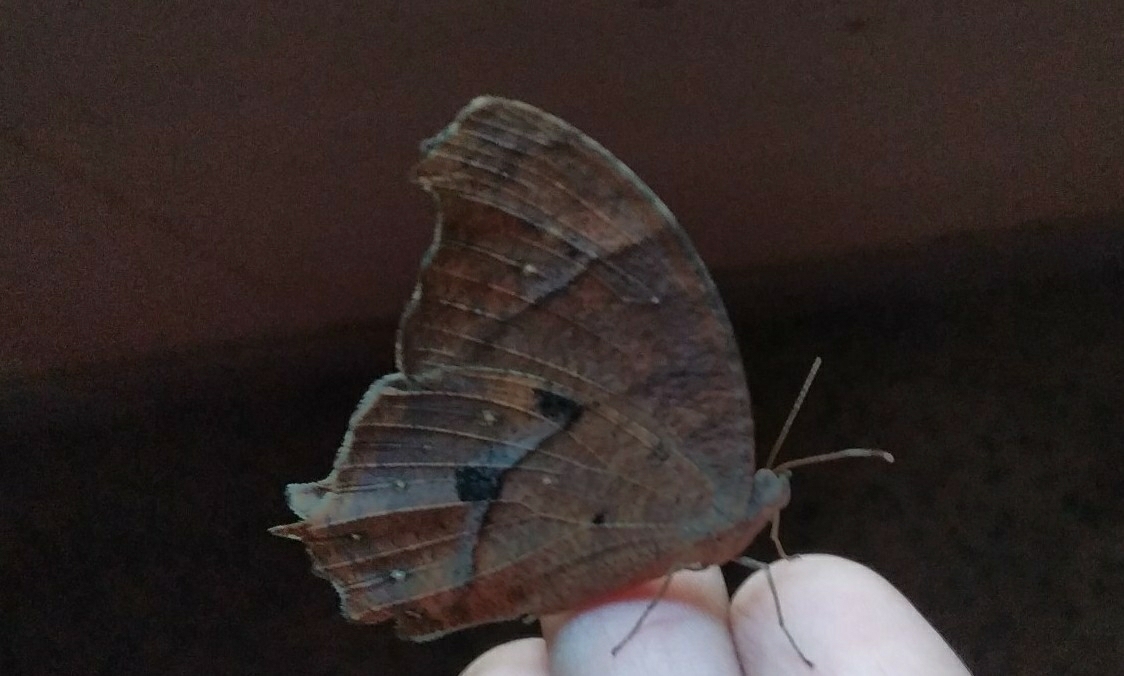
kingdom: Animalia
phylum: Arthropoda
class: Insecta
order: Lepidoptera
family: Nymphalidae
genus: Melanitis
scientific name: Melanitis phedima
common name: Dark evening brown
